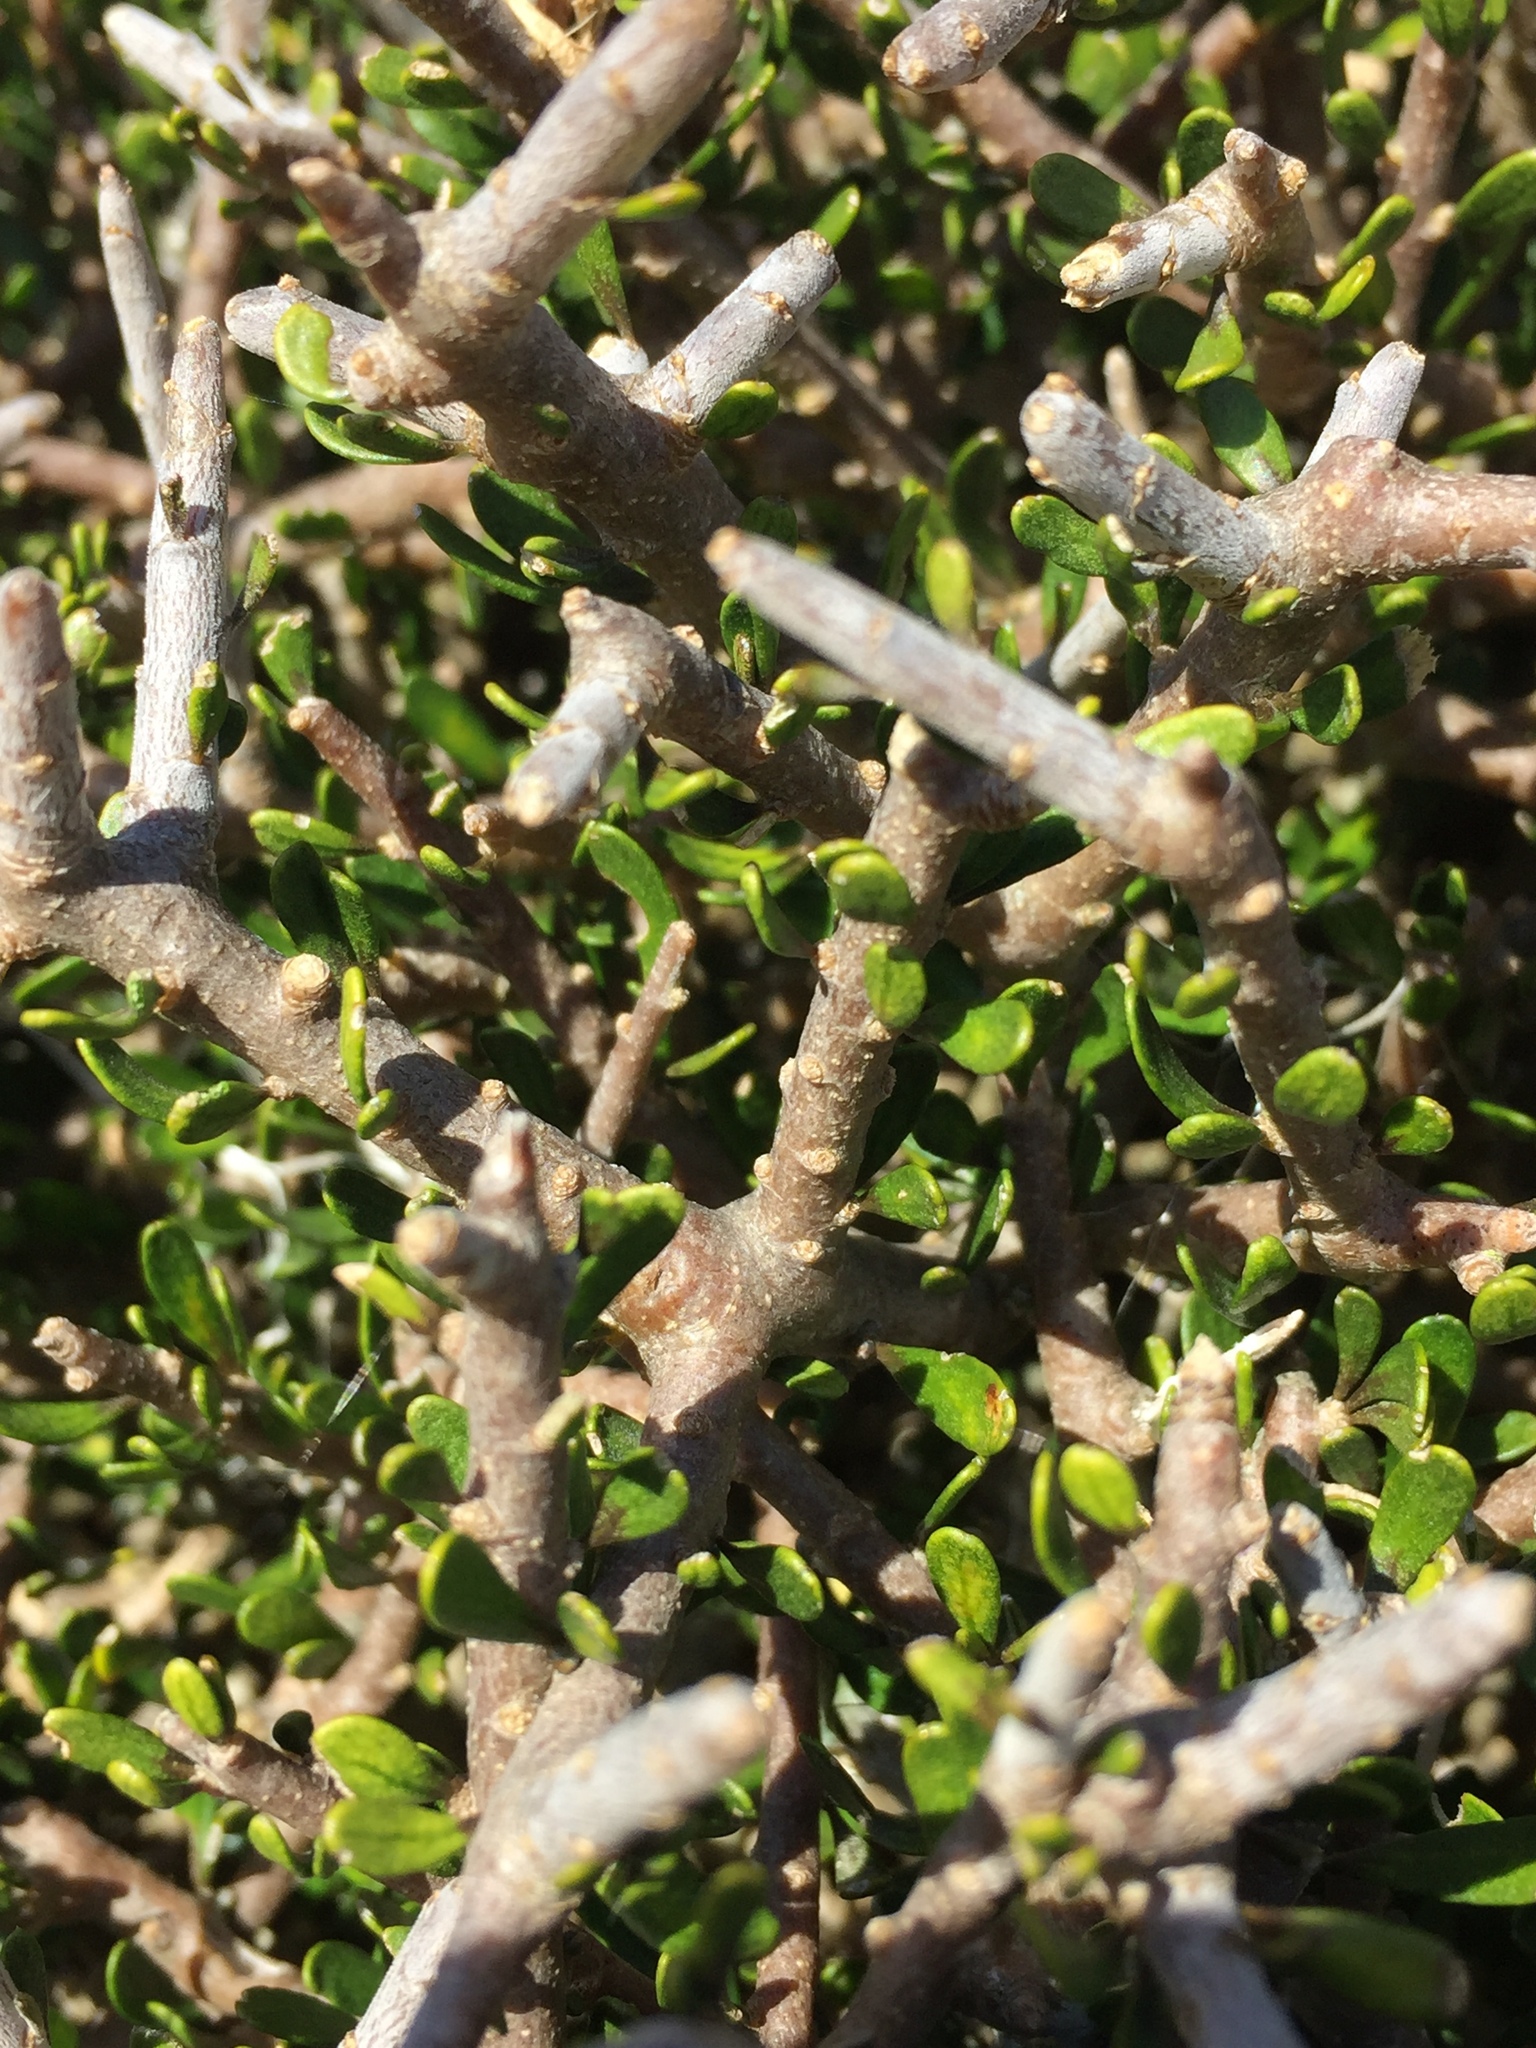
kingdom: Plantae
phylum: Tracheophyta
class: Magnoliopsida
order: Malpighiales
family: Violaceae
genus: Melicytus
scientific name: Melicytus alpinus
